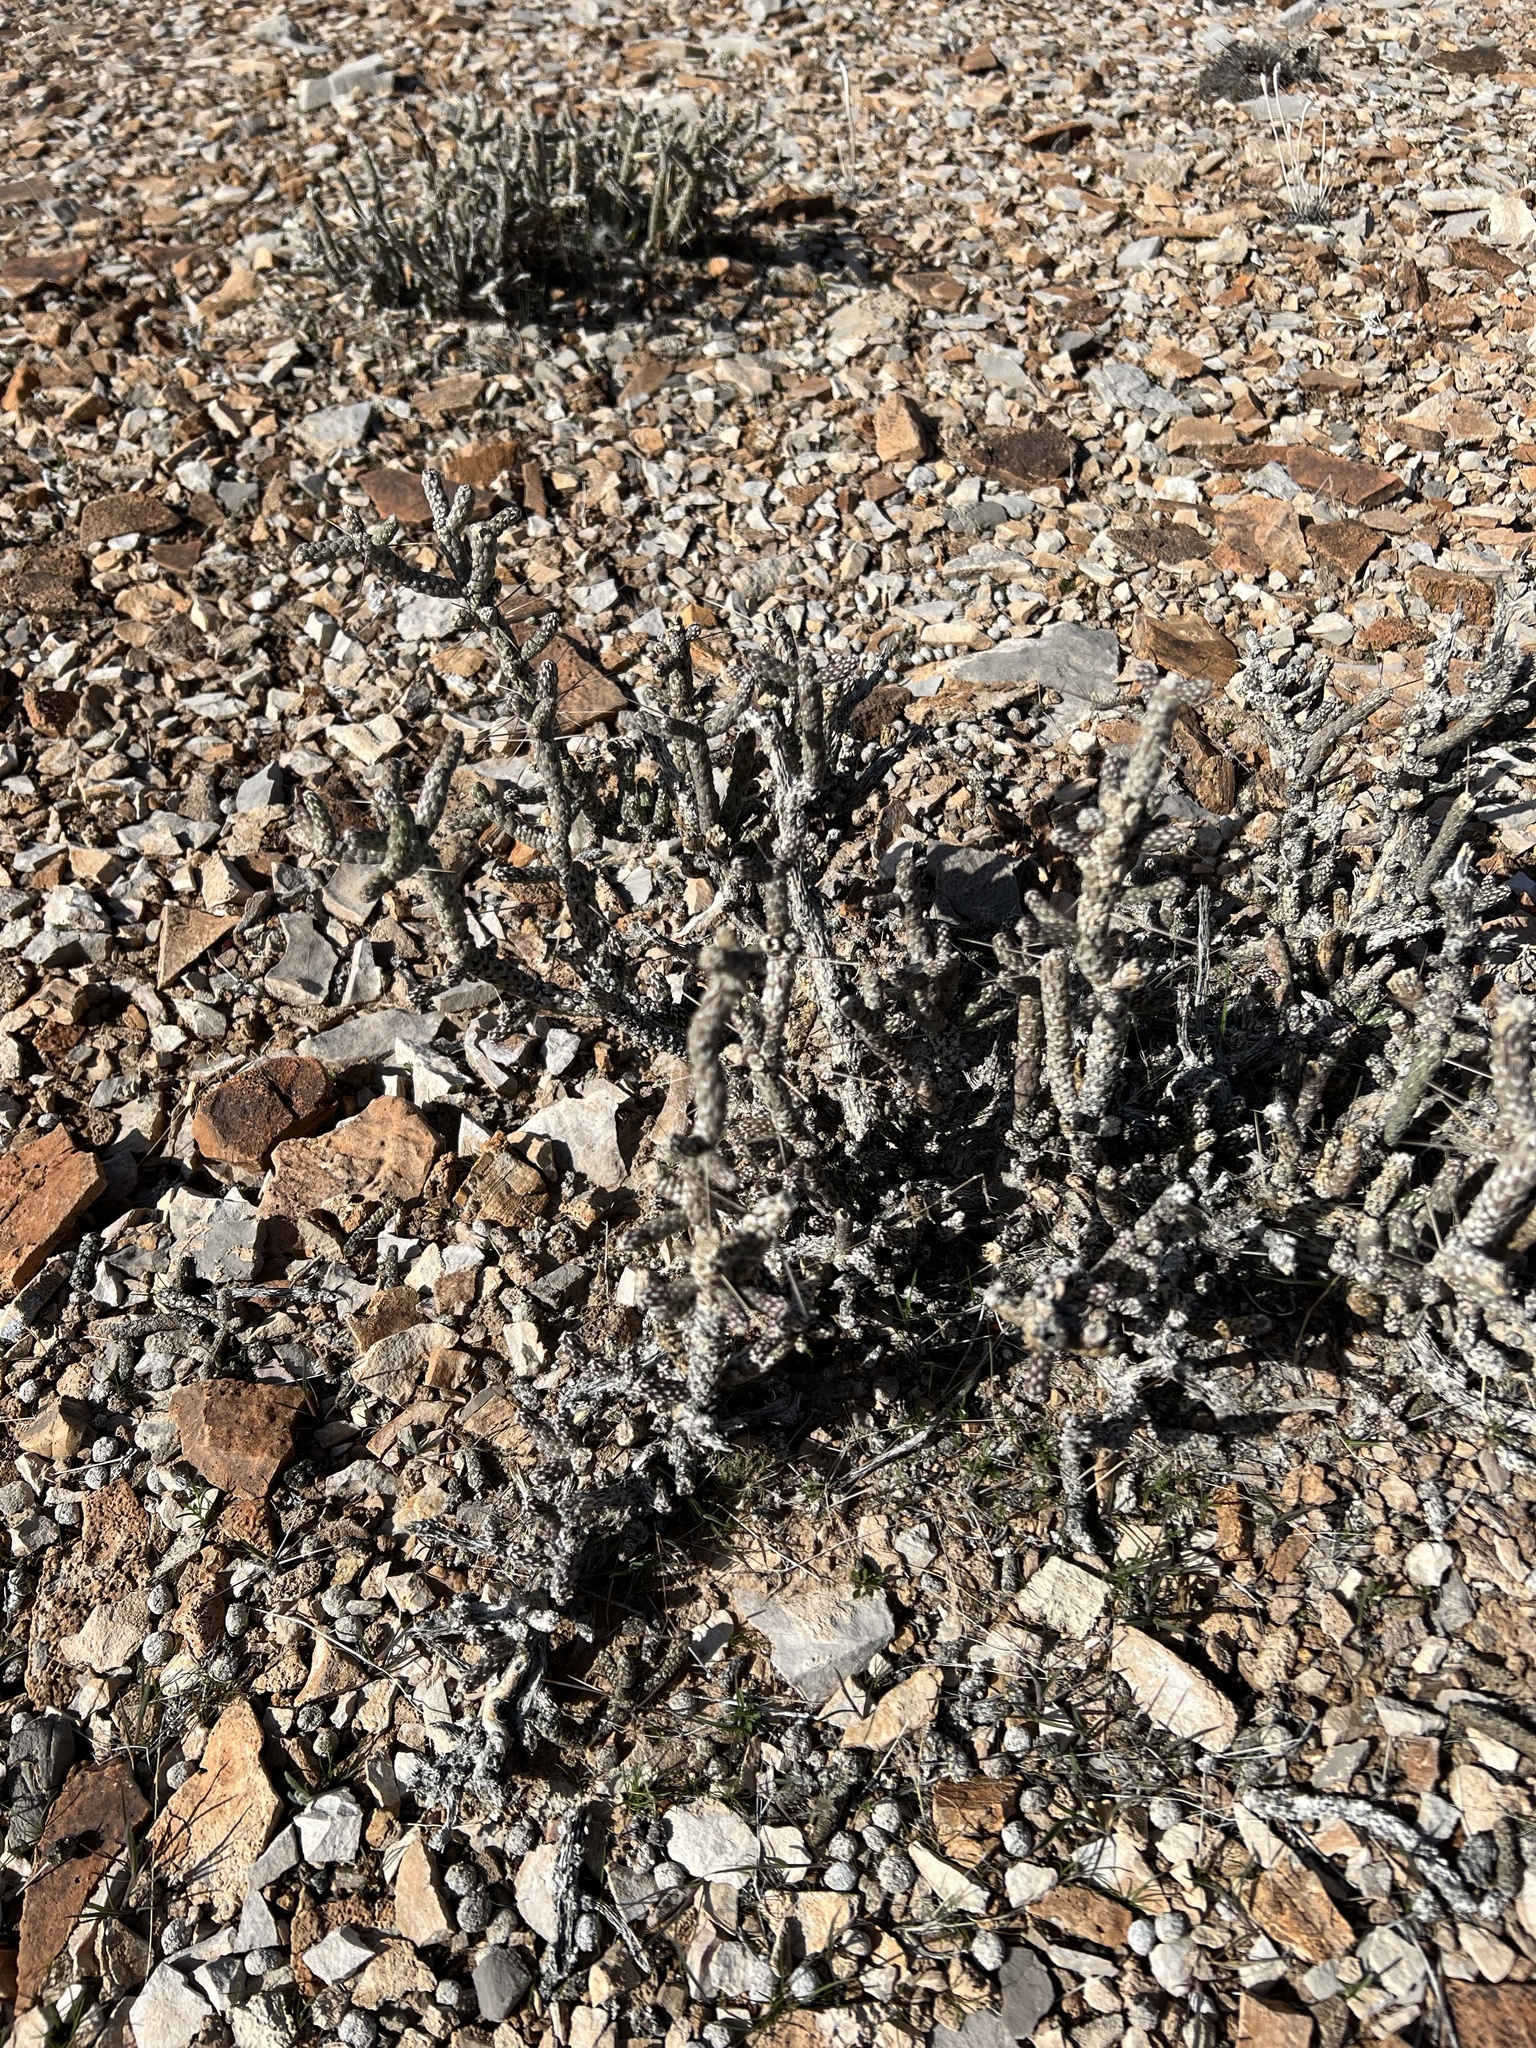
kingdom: Plantae
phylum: Tracheophyta
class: Magnoliopsida
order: Caryophyllales
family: Cactaceae
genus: Cylindropuntia
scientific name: Cylindropuntia ramosissima
